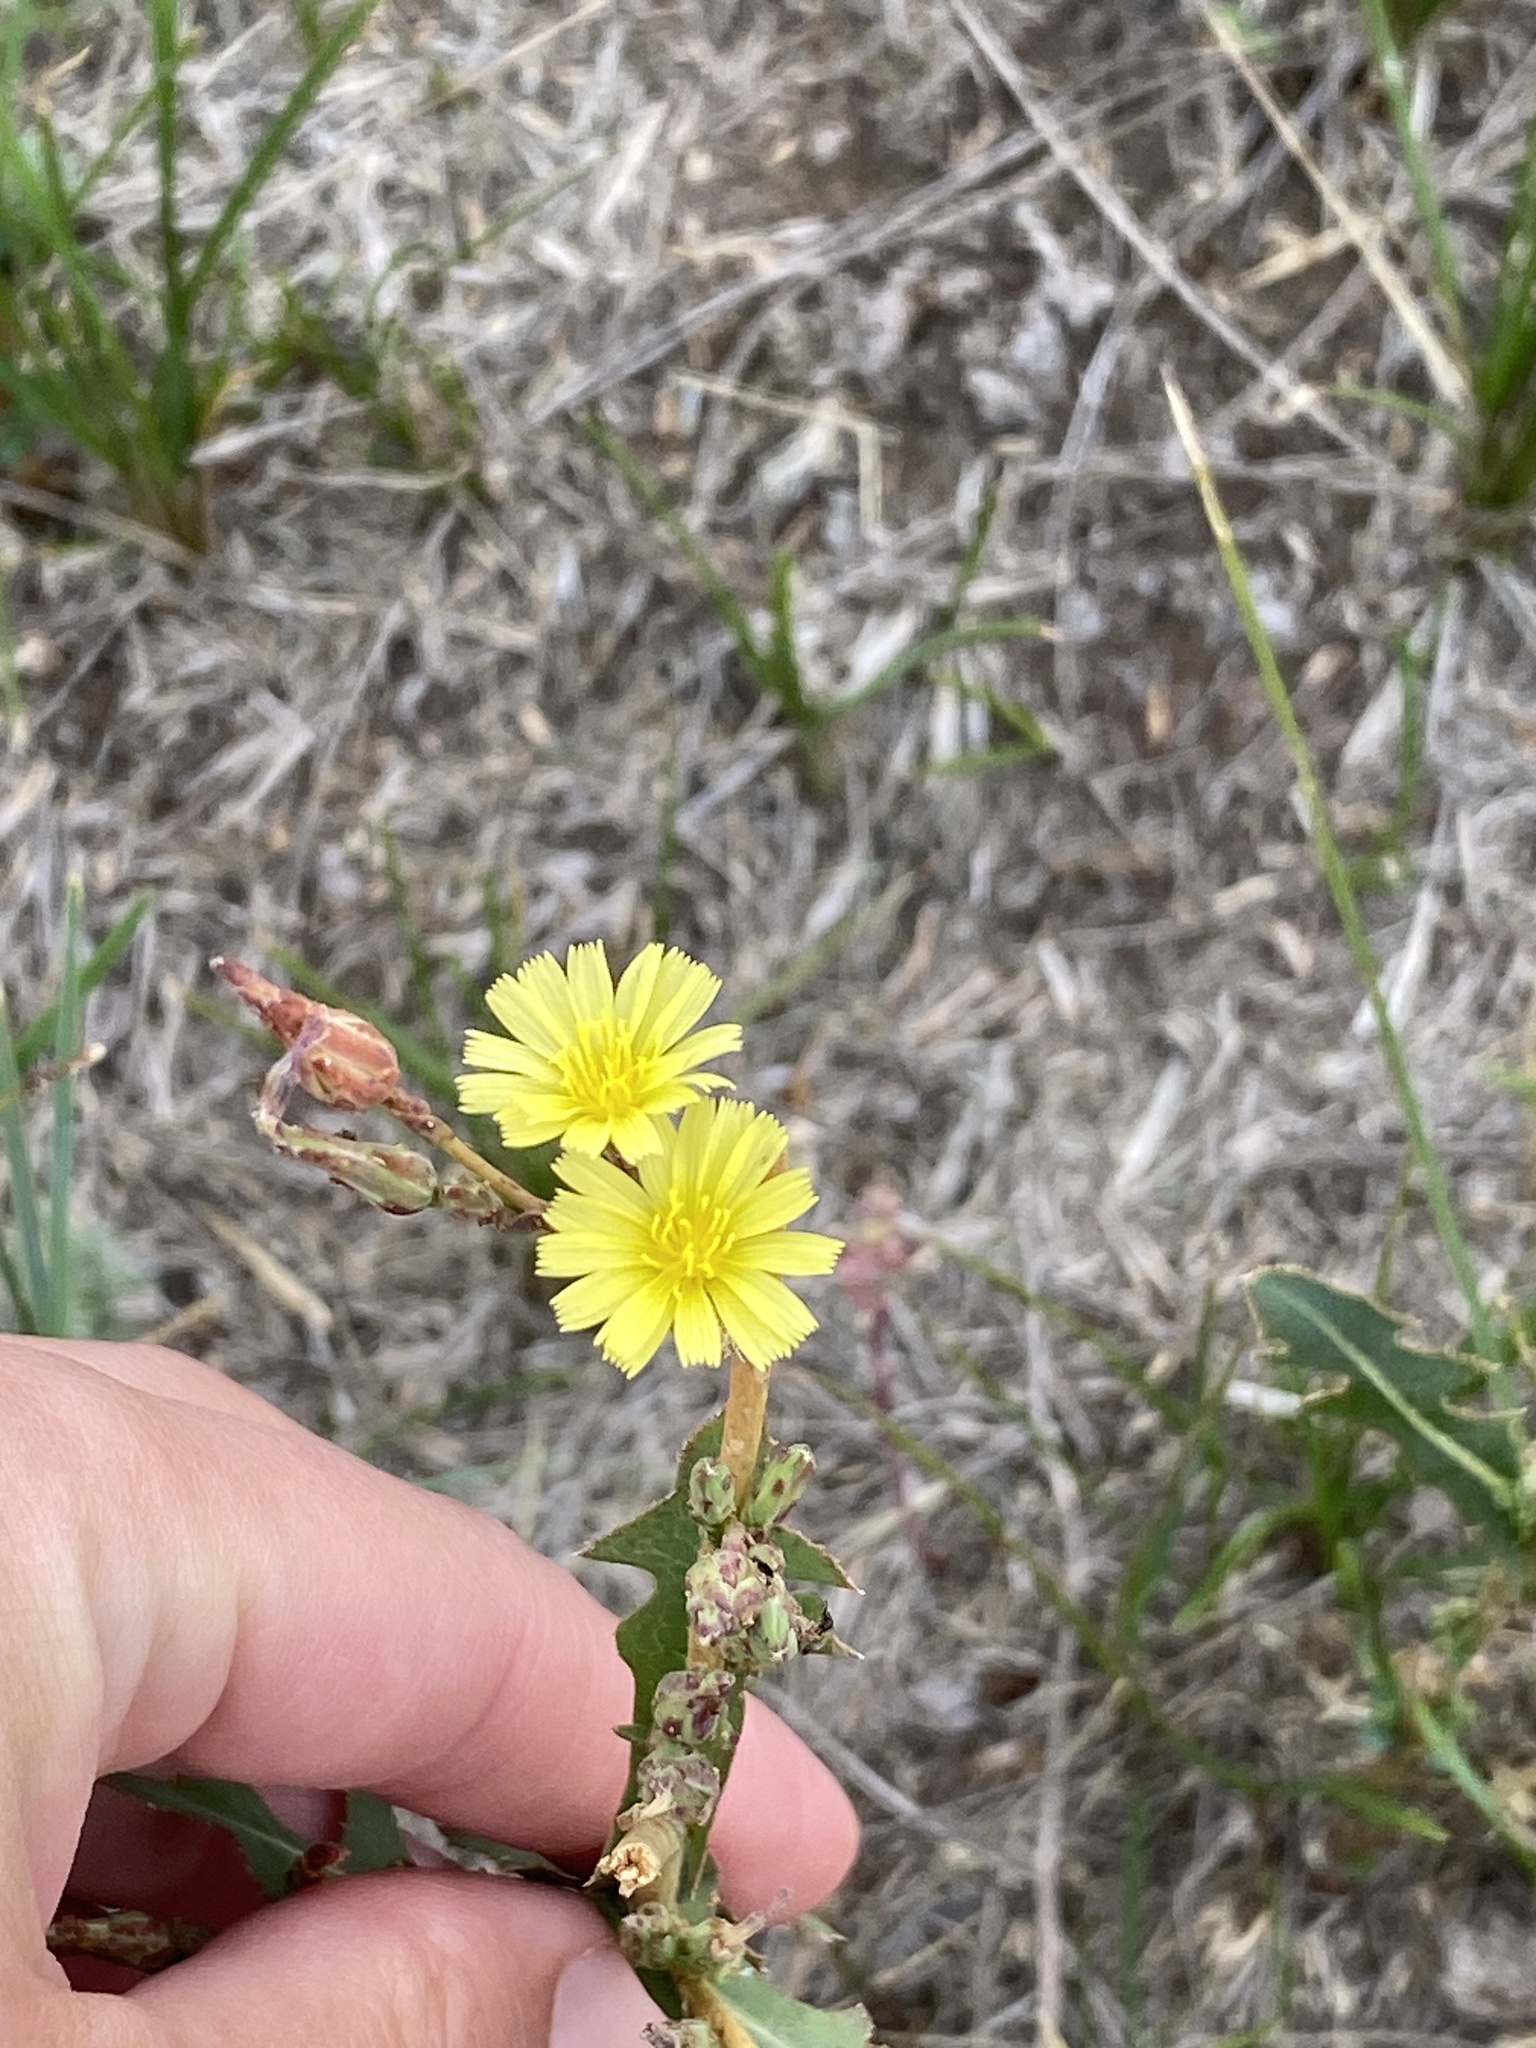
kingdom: Plantae
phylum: Tracheophyta
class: Magnoliopsida
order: Asterales
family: Asteraceae
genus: Lactuca
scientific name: Lactuca serriola
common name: Prickly lettuce
